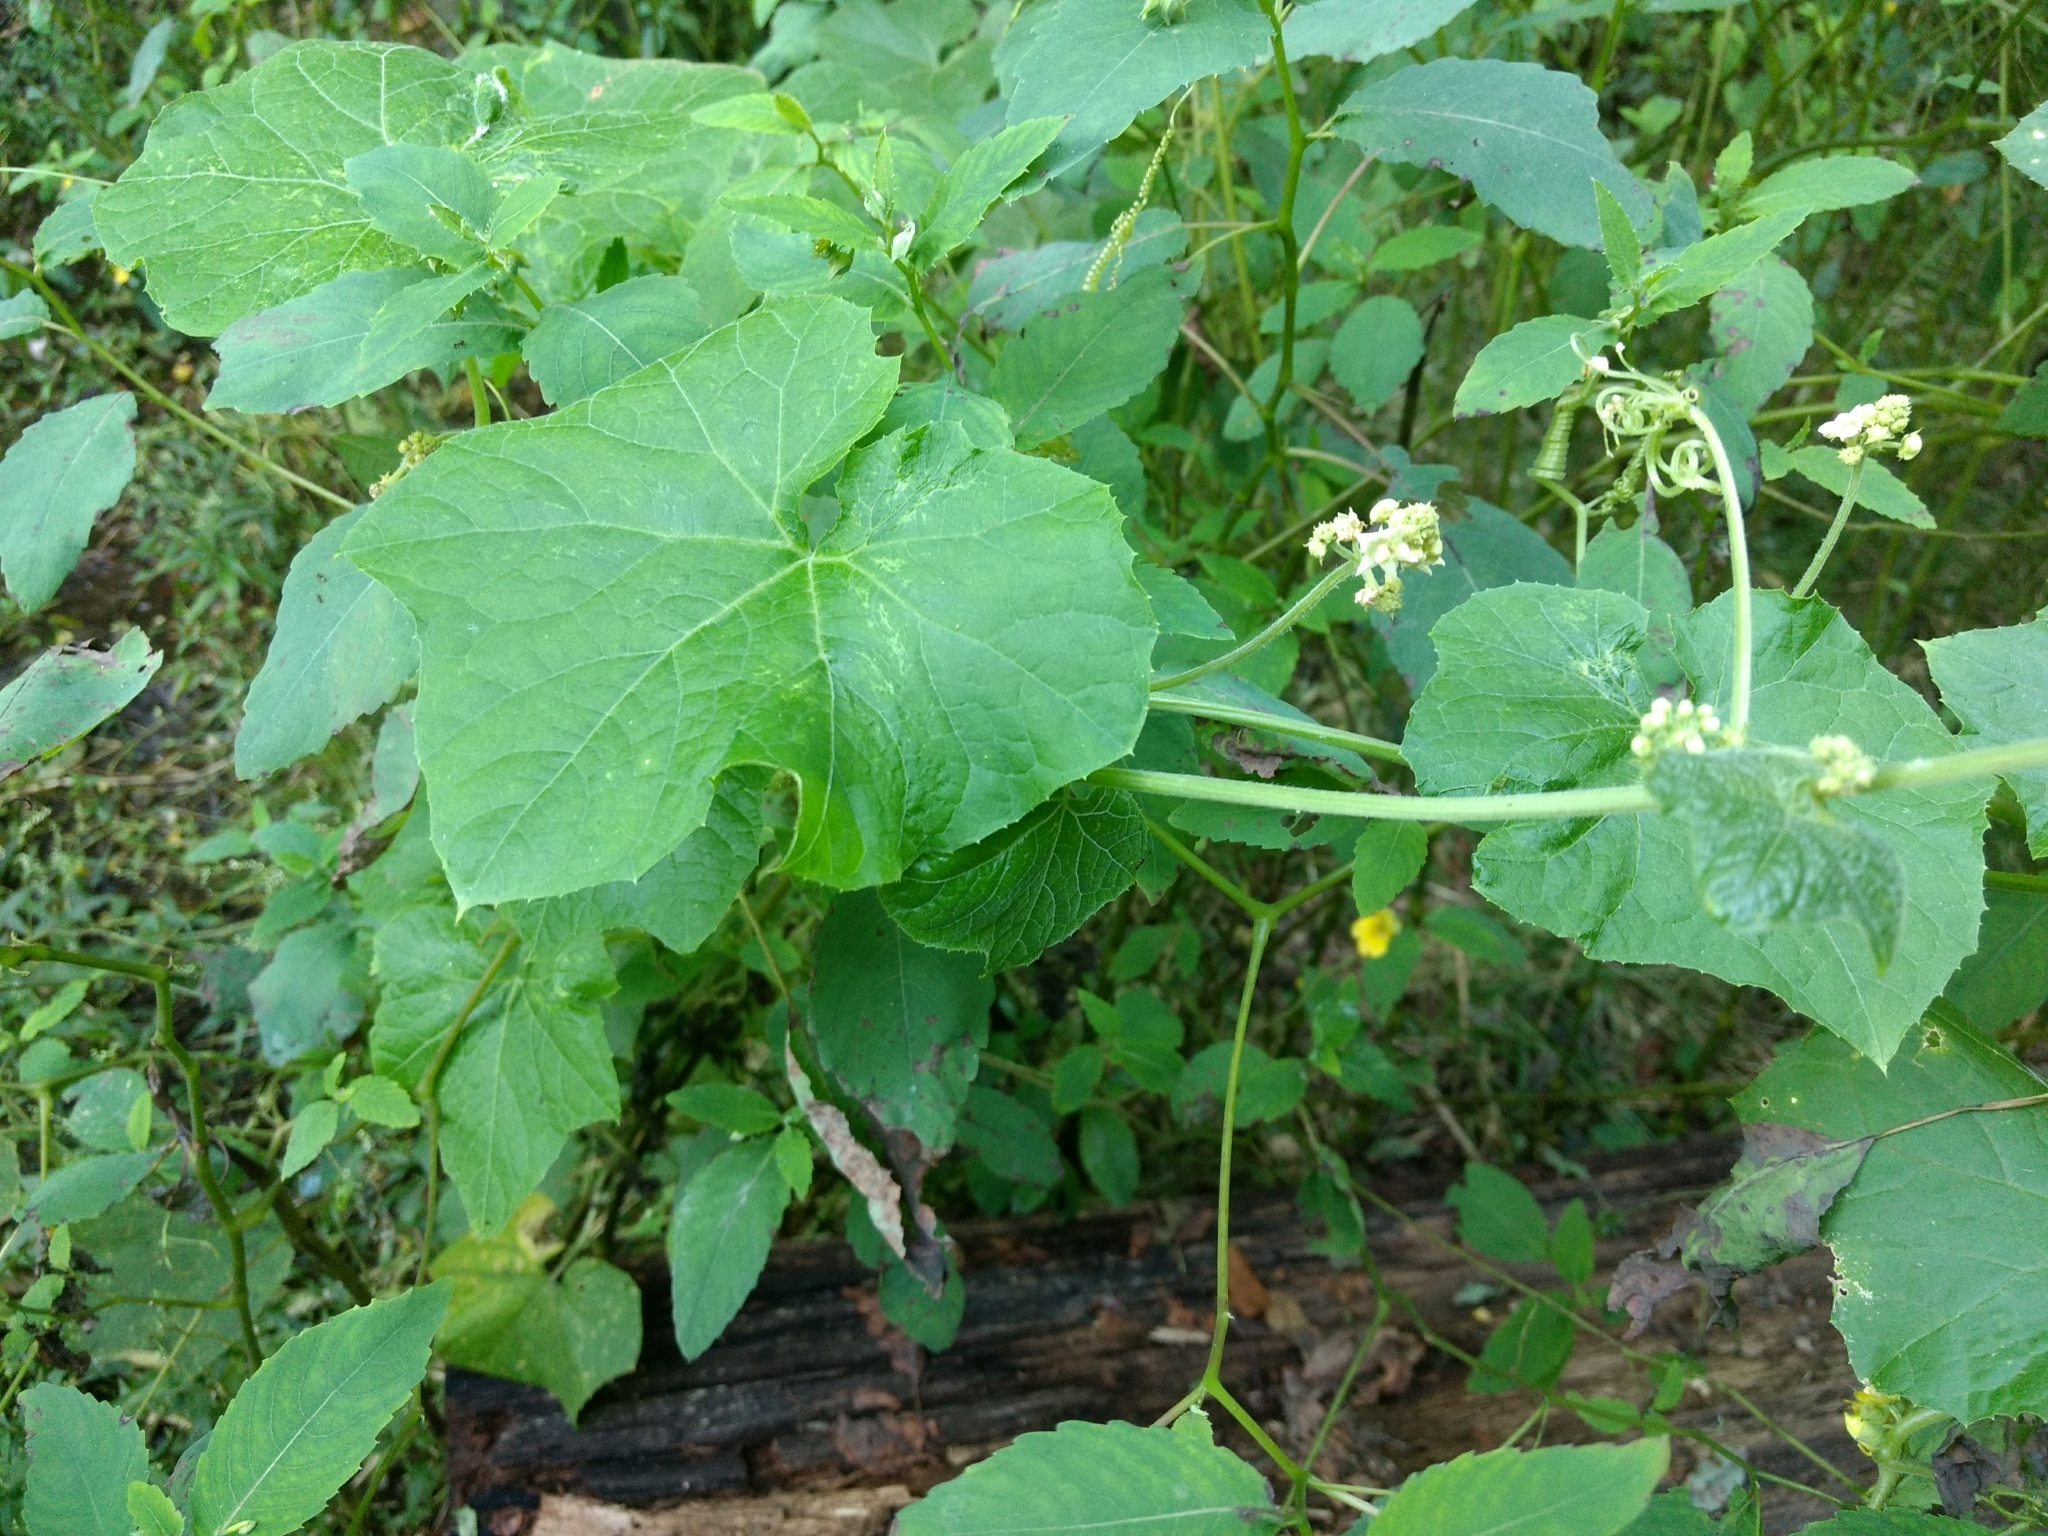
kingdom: Plantae
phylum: Tracheophyta
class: Magnoliopsida
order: Cucurbitales
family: Cucurbitaceae
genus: Sicyos
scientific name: Sicyos angulatus
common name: Angled burr cucumber
